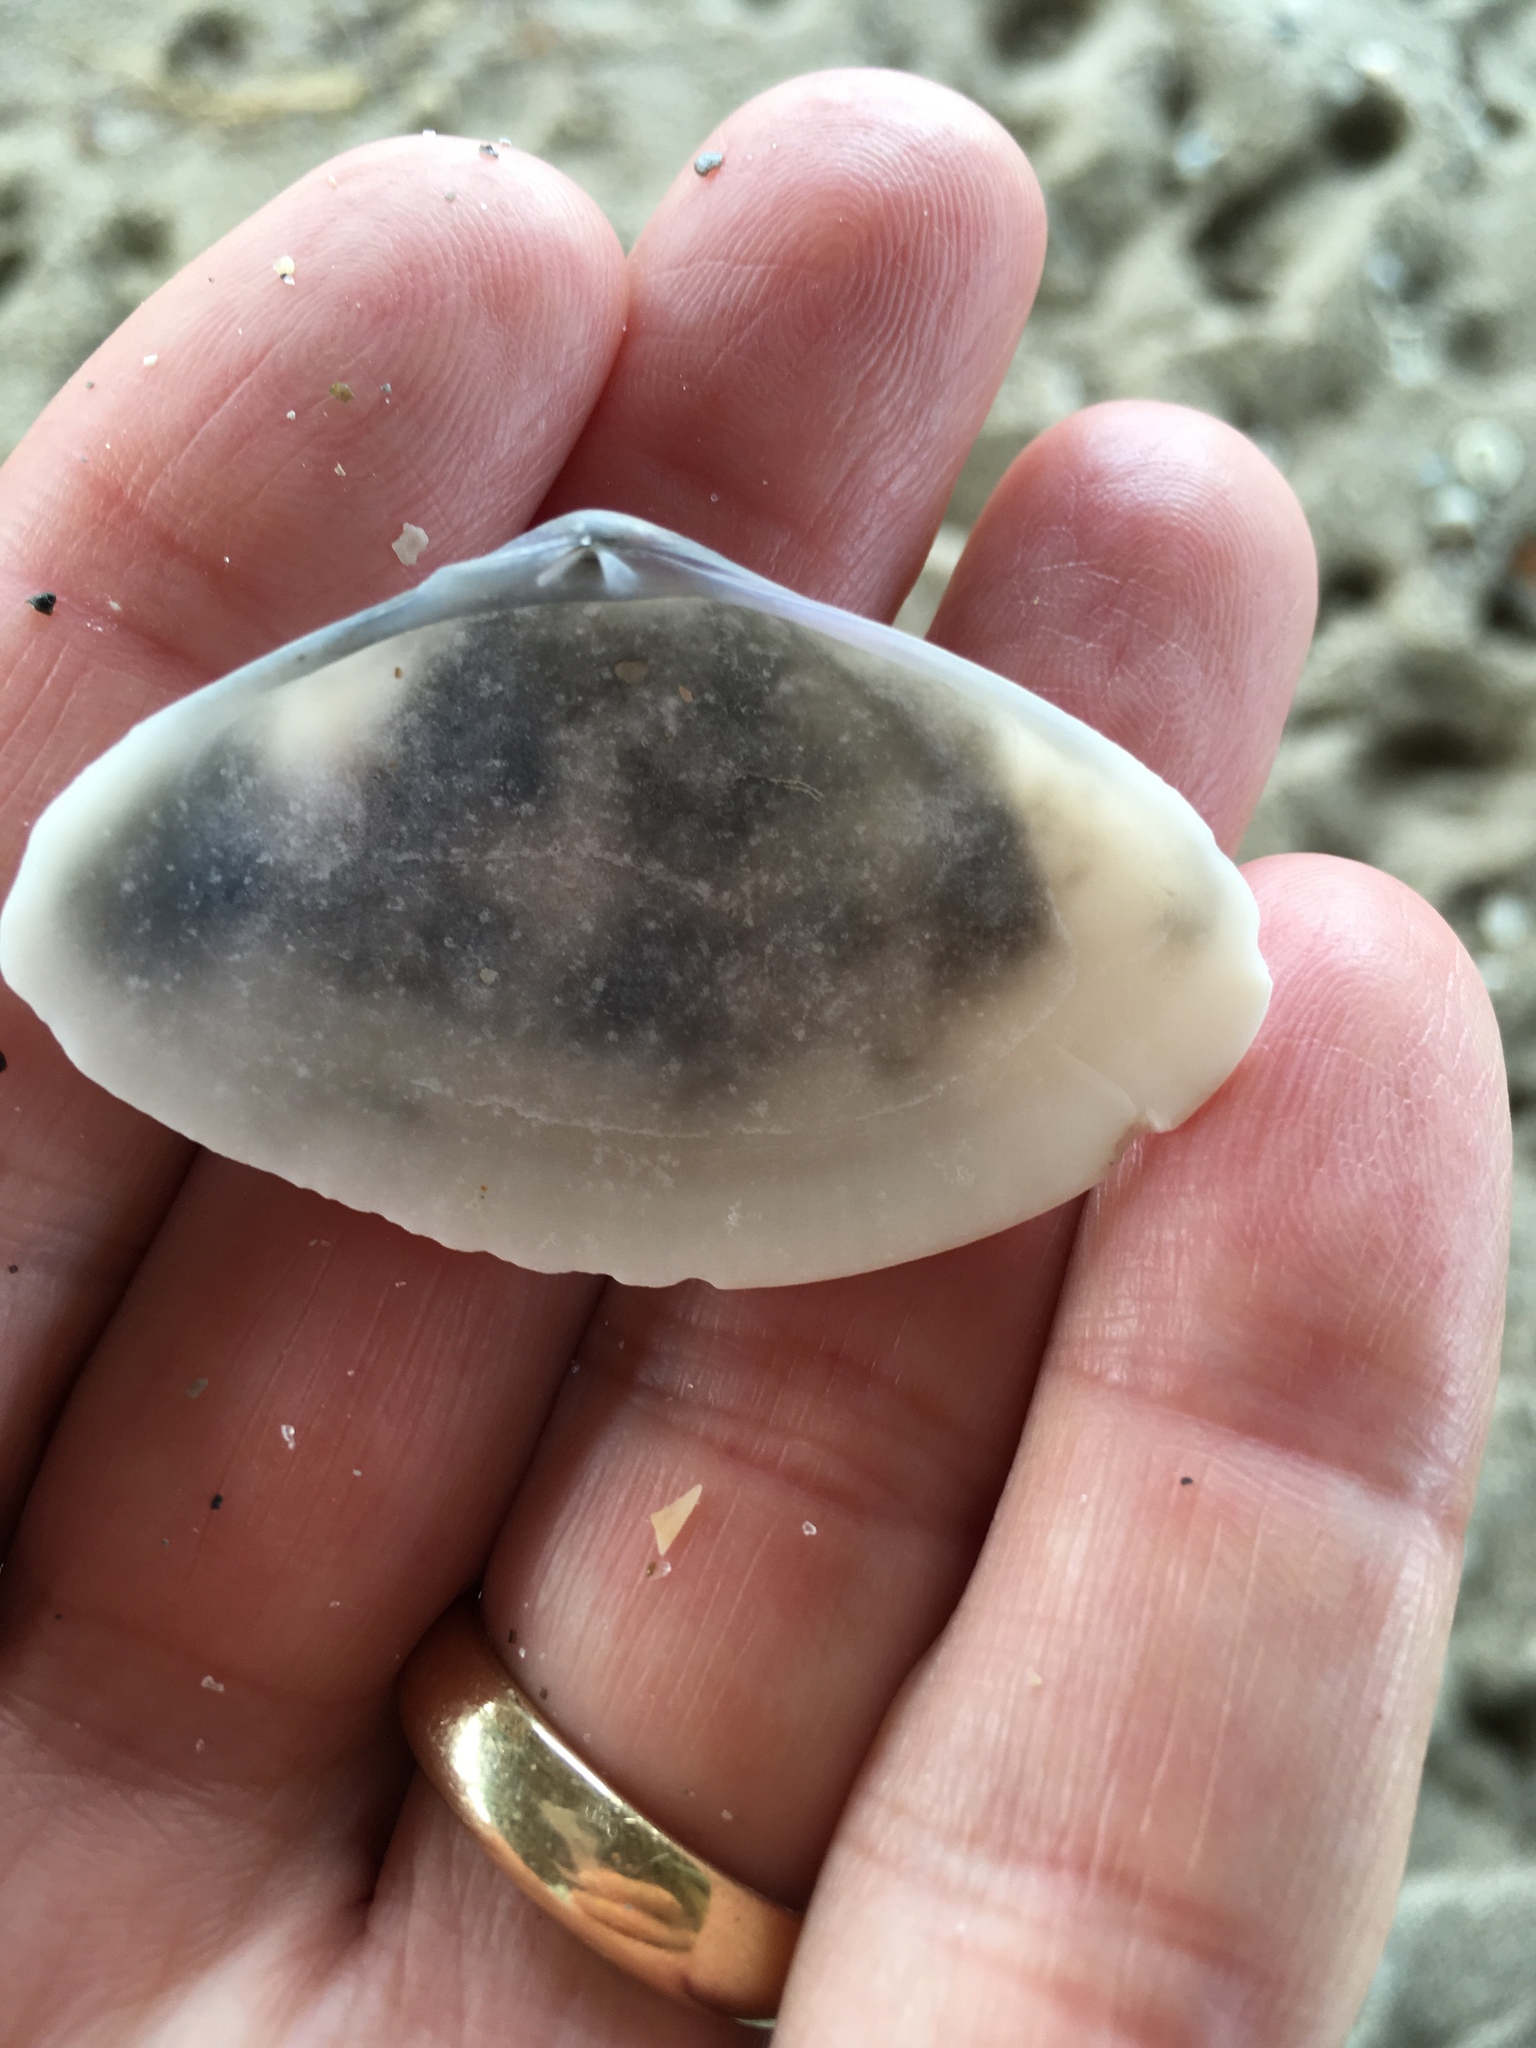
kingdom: Animalia
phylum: Mollusca
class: Bivalvia
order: Cardiida
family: Donacidae
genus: Iphigenia
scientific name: Iphigenia brasiliensis
